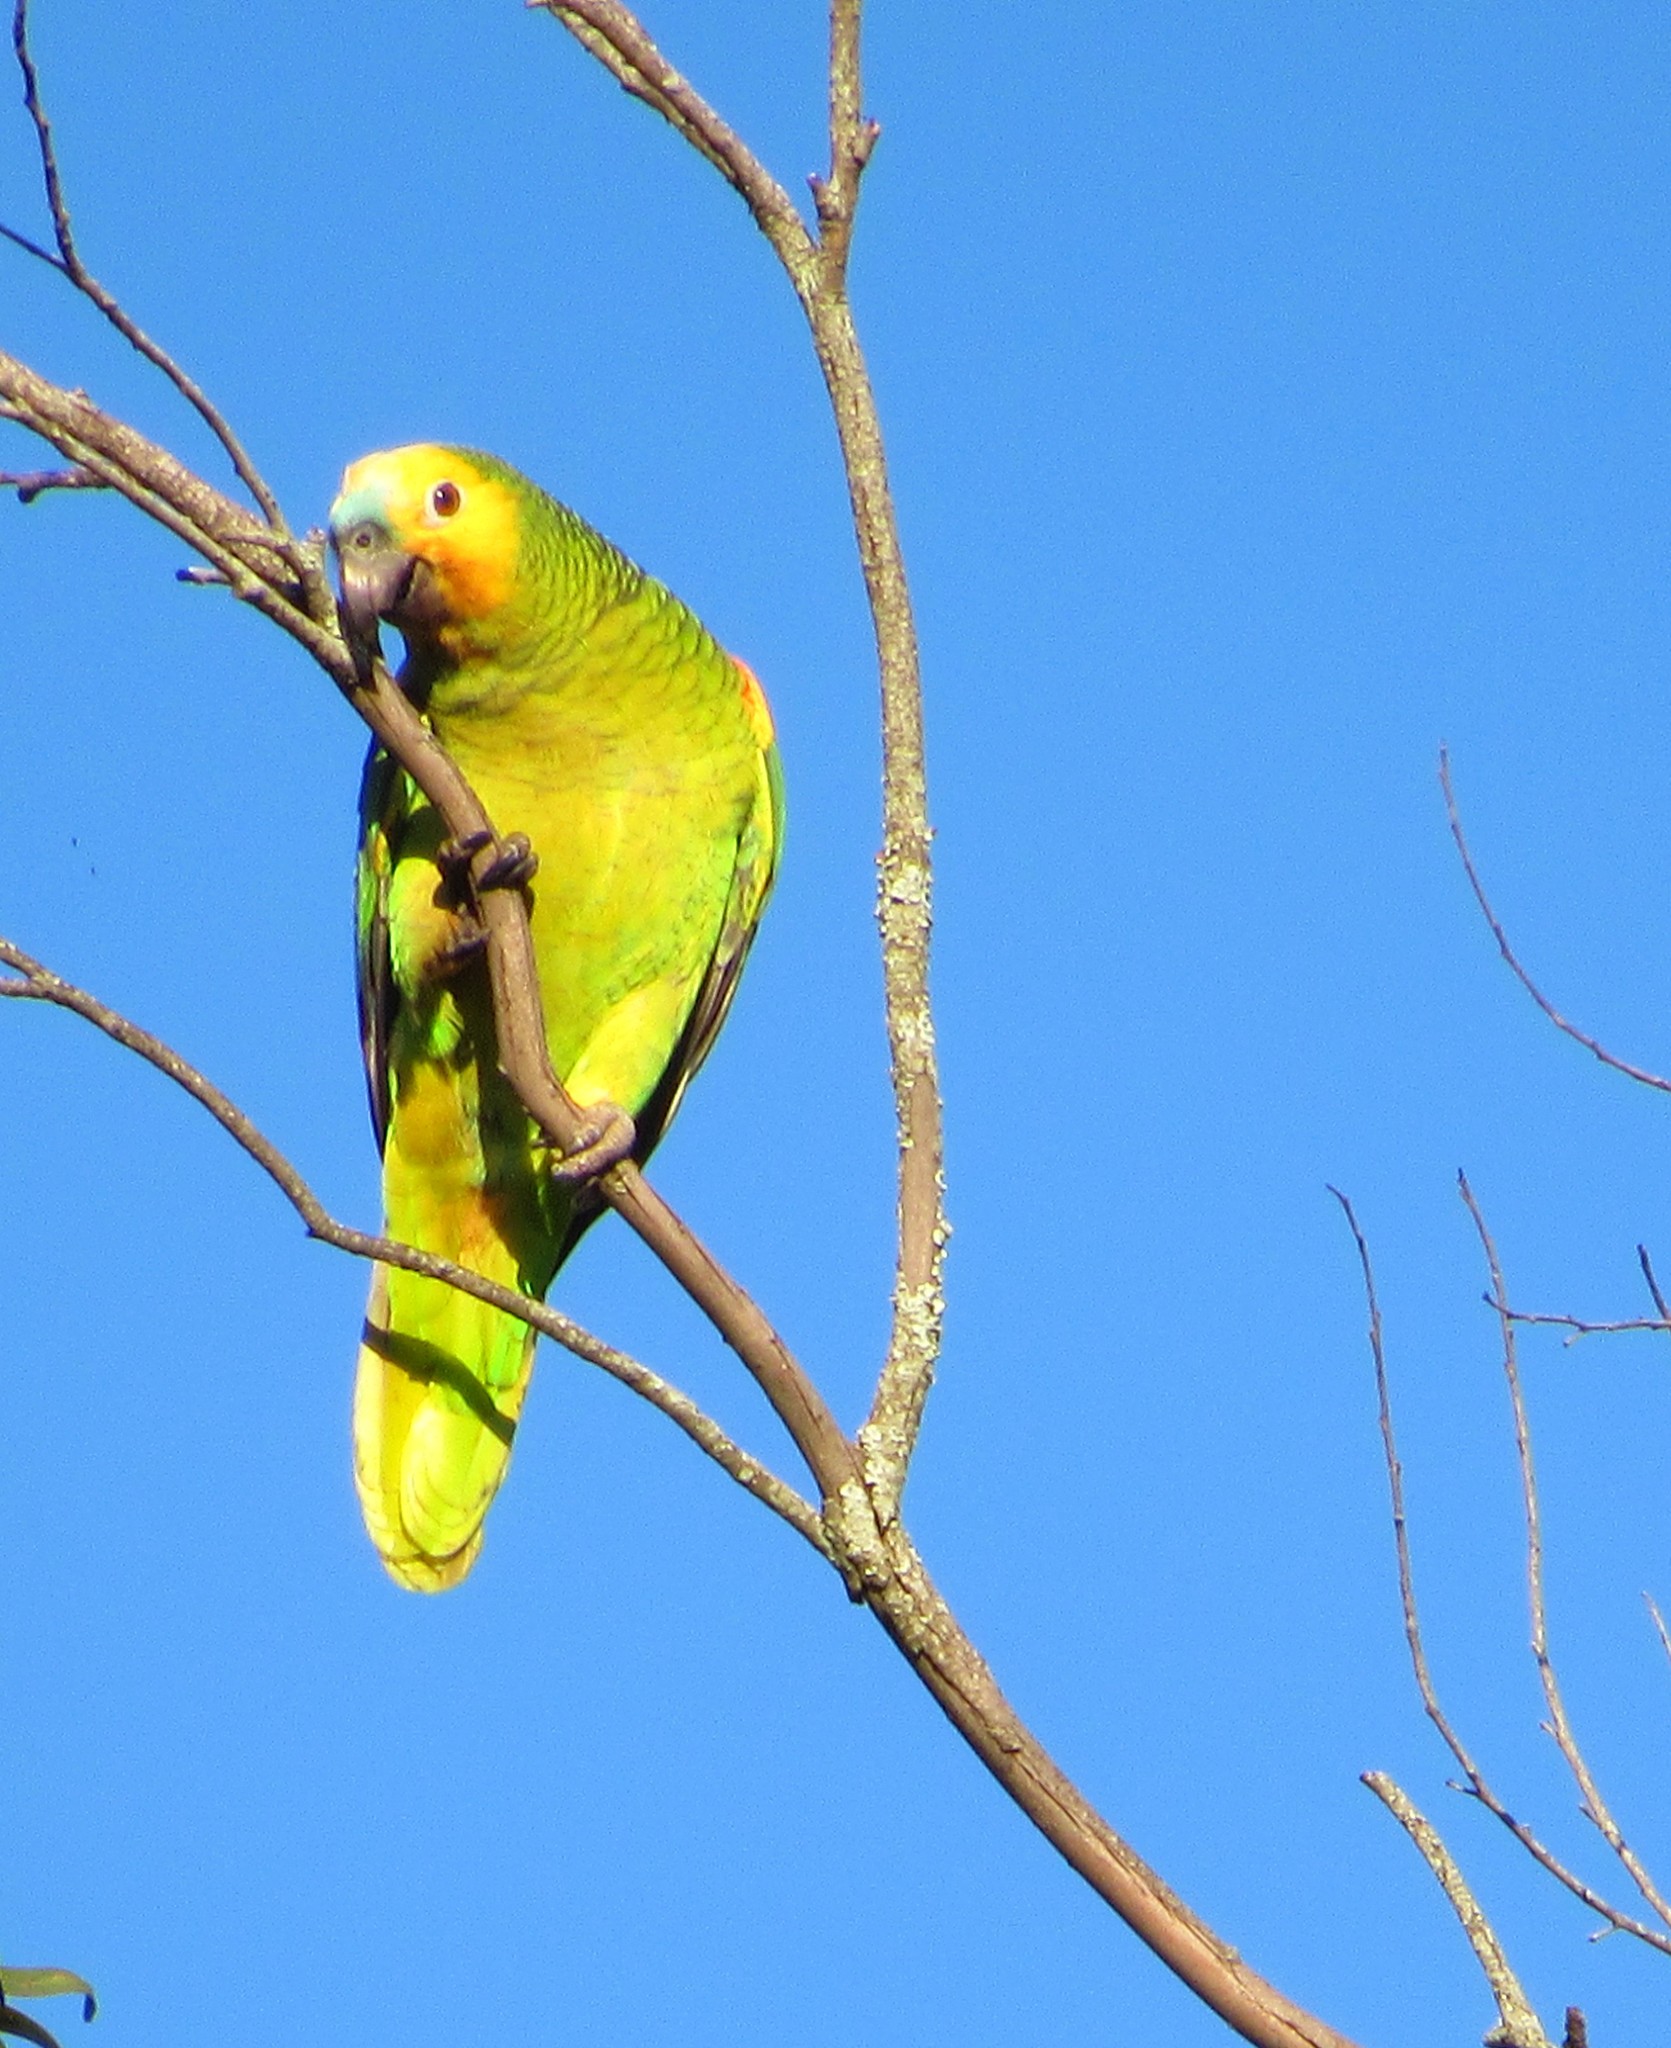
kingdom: Animalia
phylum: Chordata
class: Aves
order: Psittaciformes
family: Psittacidae
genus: Amazona
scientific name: Amazona aestiva
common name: Turquoise-fronted amazon
